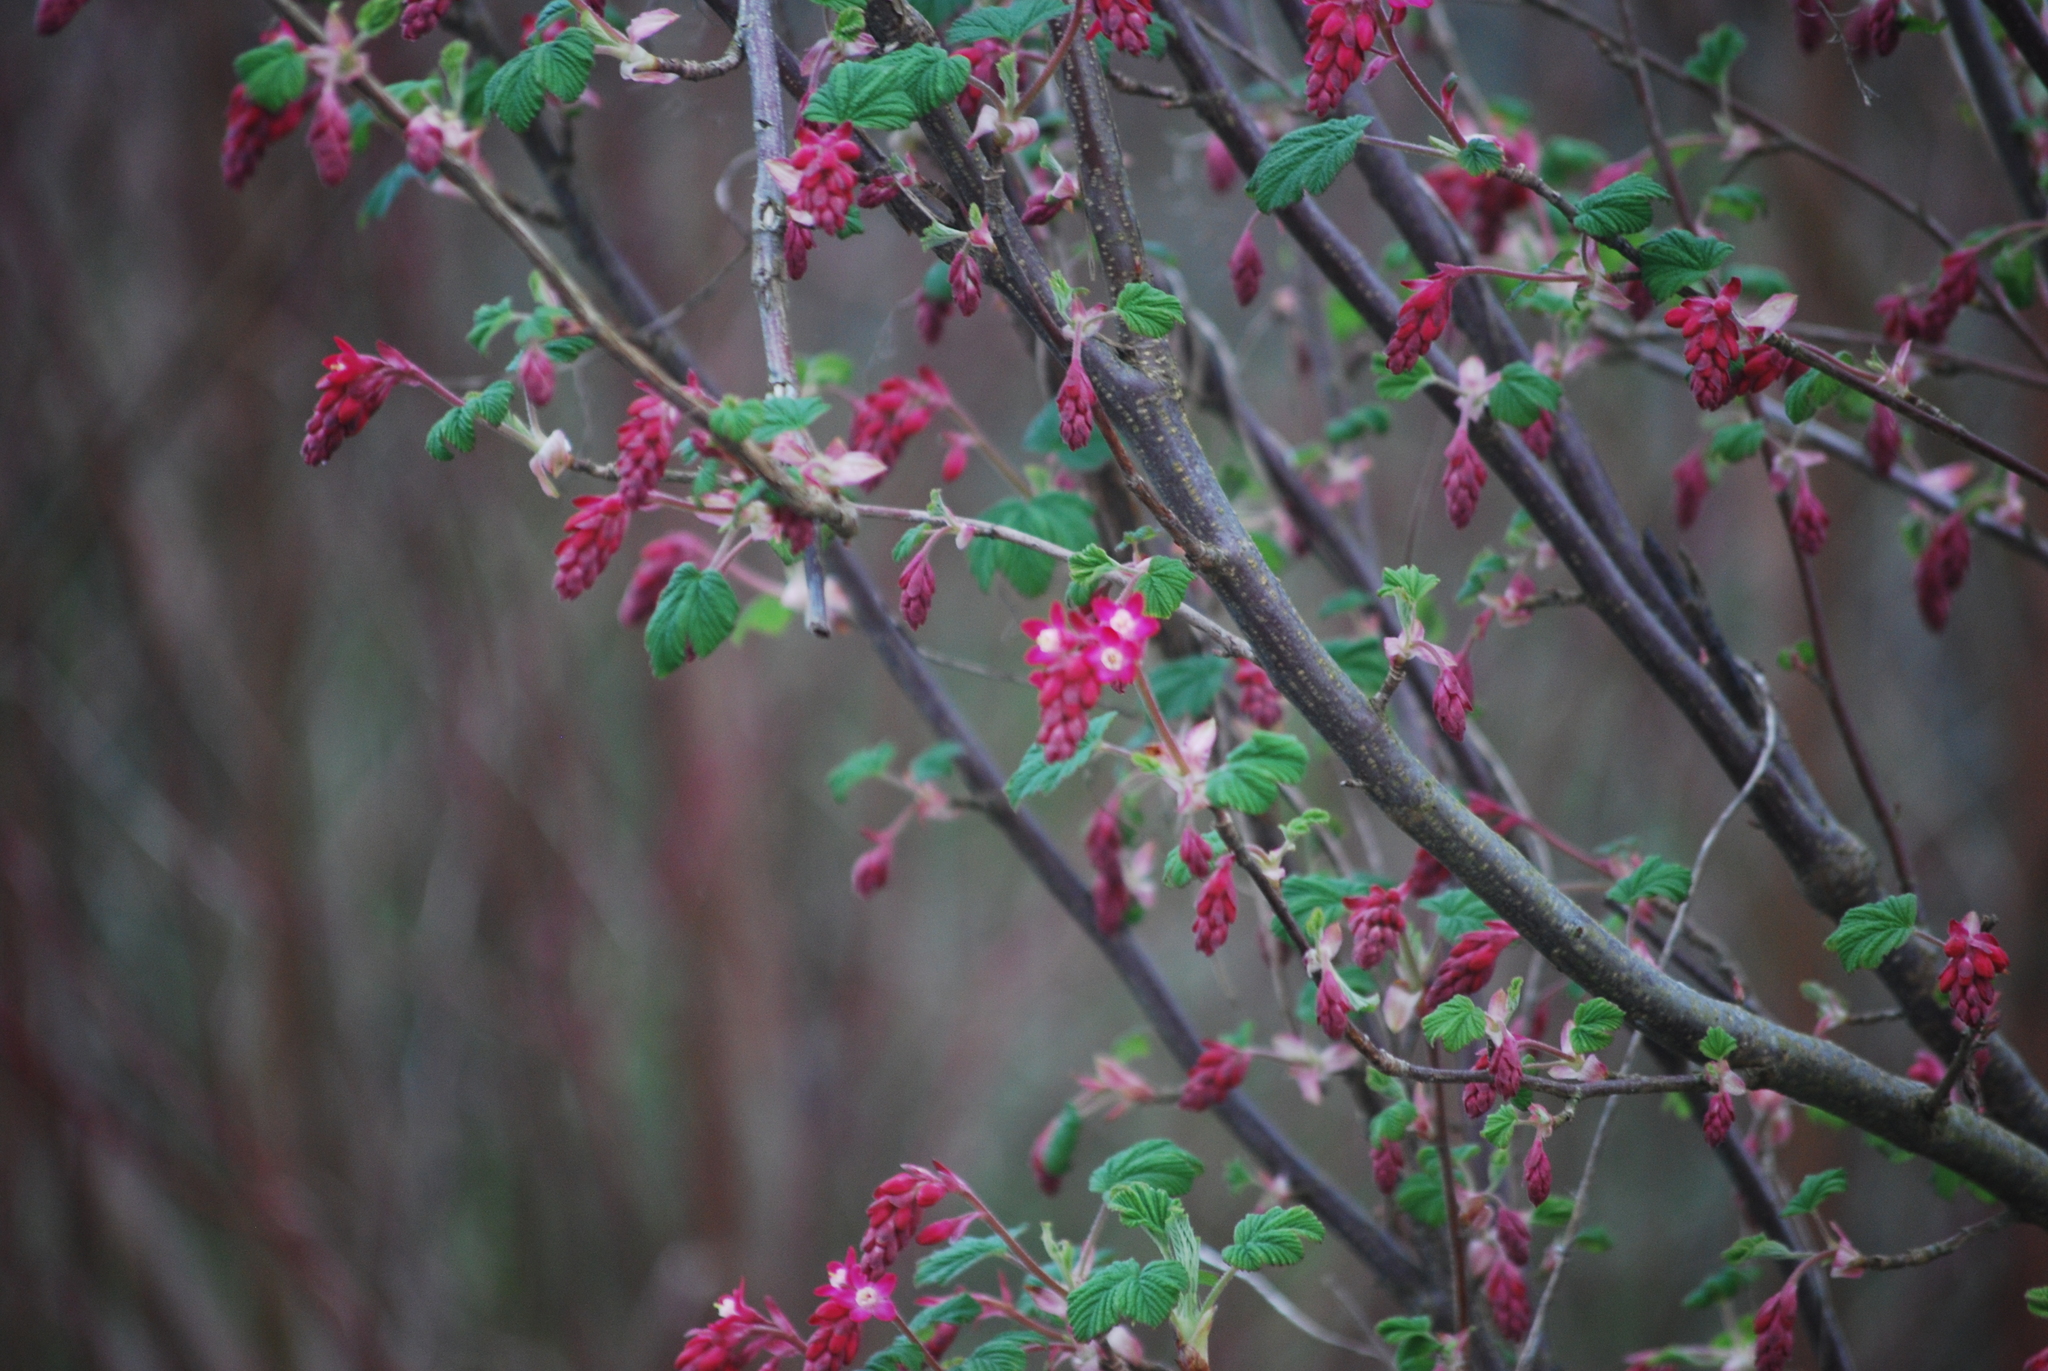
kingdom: Plantae
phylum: Tracheophyta
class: Magnoliopsida
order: Saxifragales
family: Grossulariaceae
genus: Ribes
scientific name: Ribes sanguineum
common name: Flowering currant
